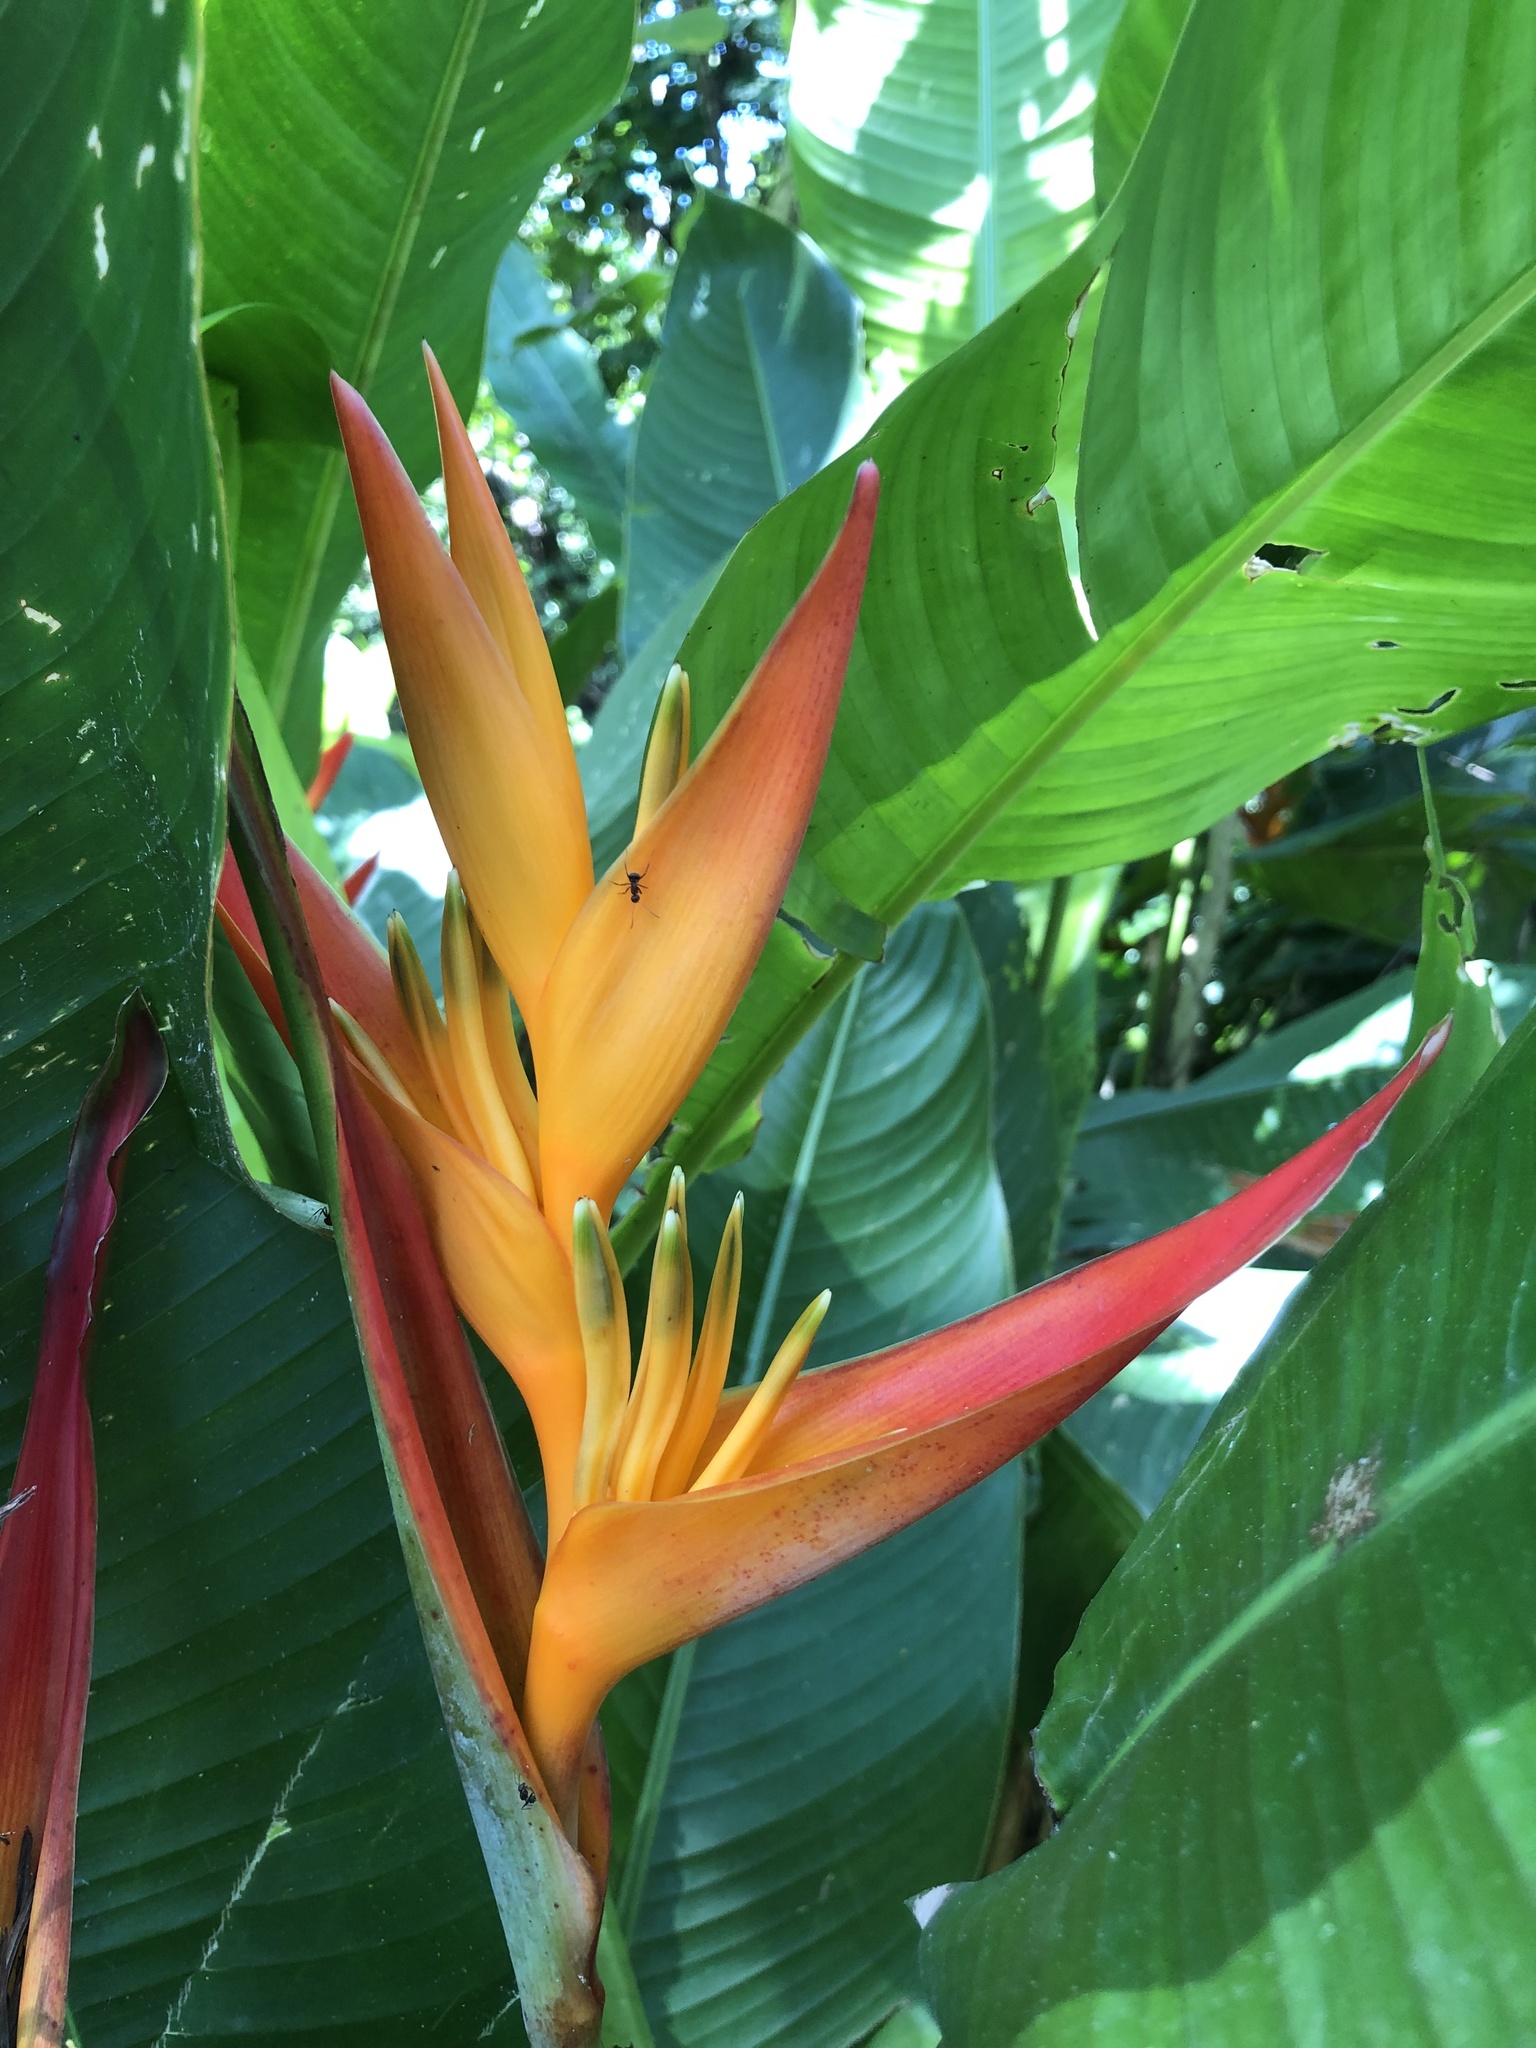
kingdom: Plantae
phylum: Tracheophyta
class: Liliopsida
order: Zingiberales
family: Heliconiaceae
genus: Heliconia
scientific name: Heliconia psittacorum
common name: Parrot's-flower
